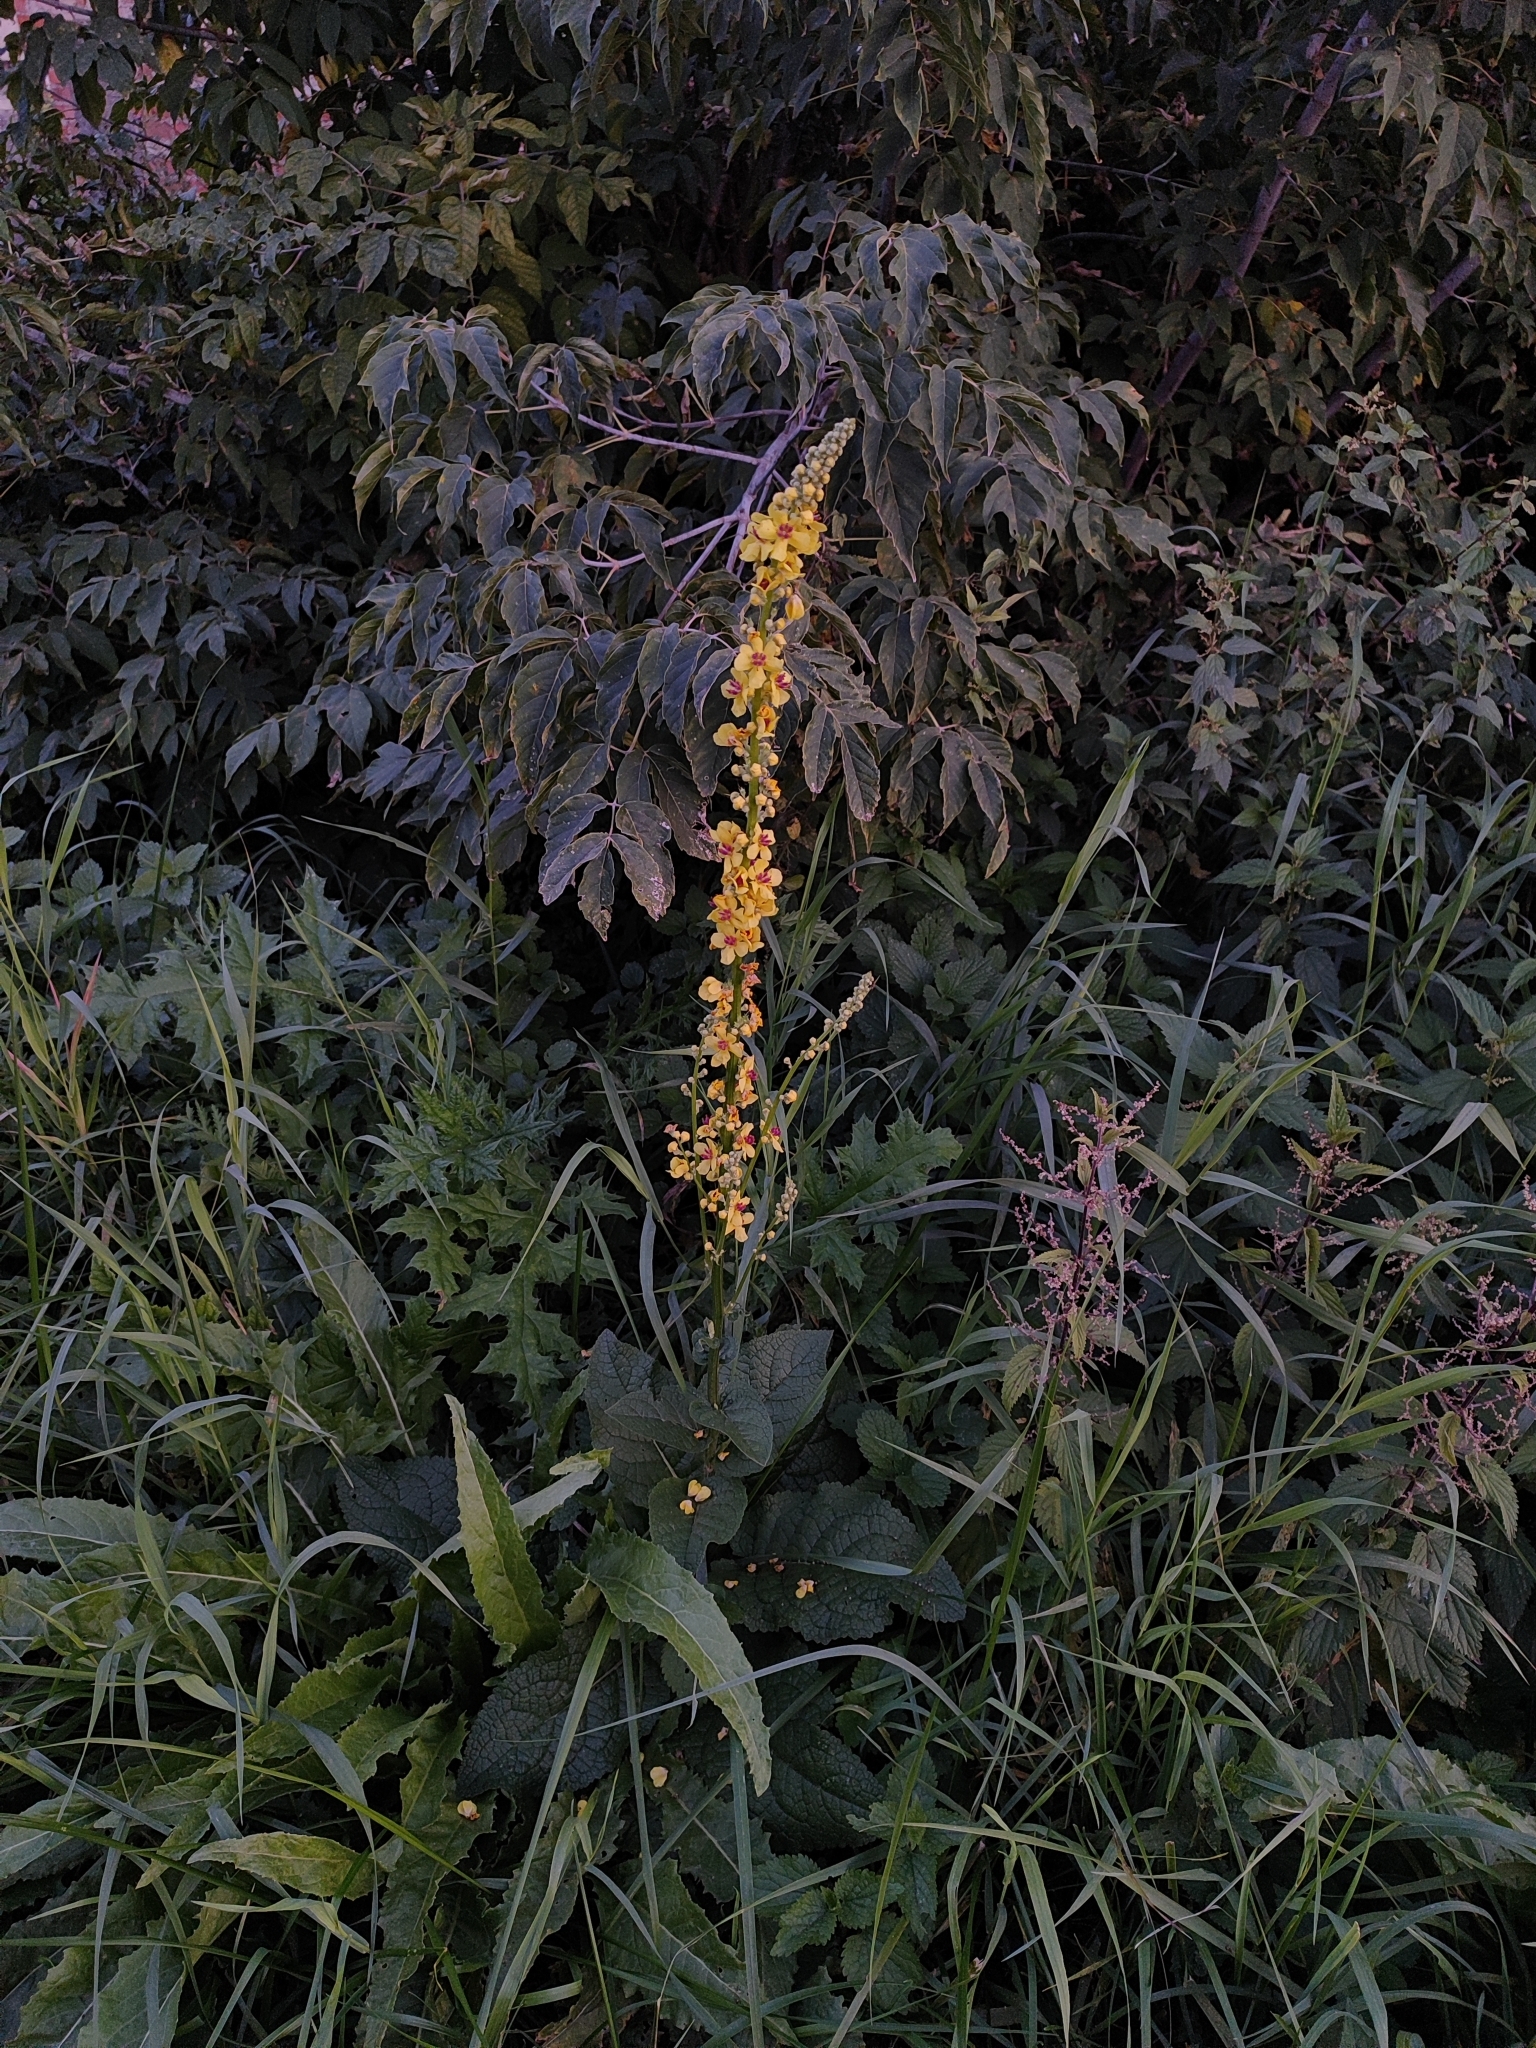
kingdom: Plantae
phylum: Tracheophyta
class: Magnoliopsida
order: Lamiales
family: Scrophulariaceae
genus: Verbascum
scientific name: Verbascum nigrum
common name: Dark mullein
